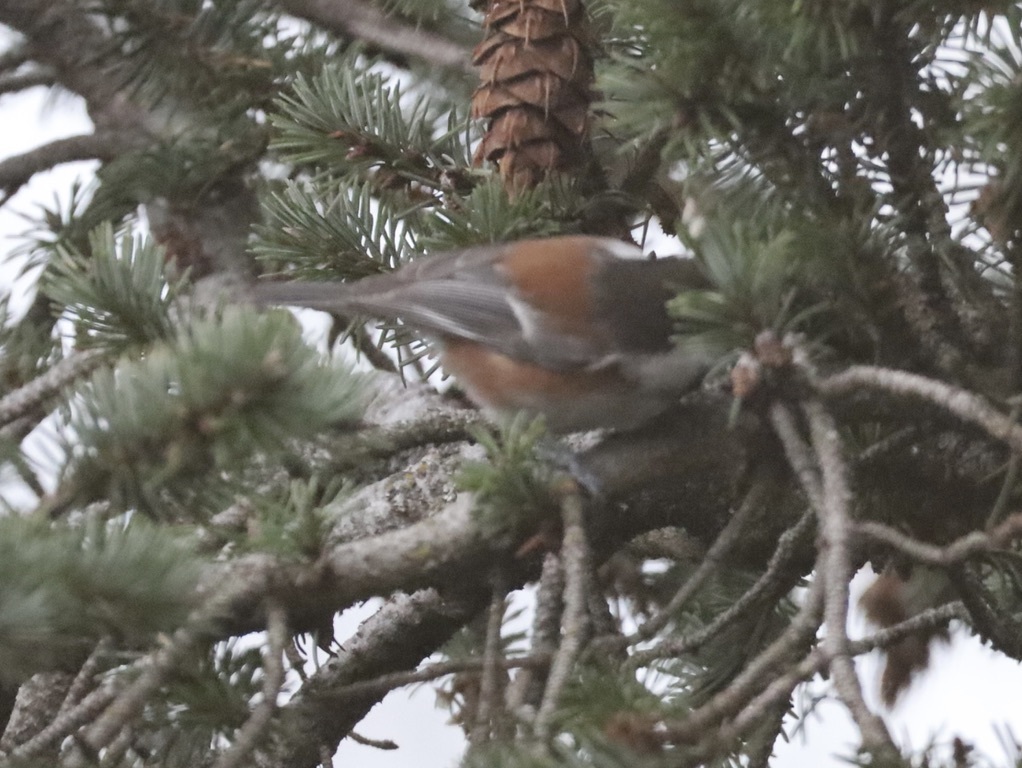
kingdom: Animalia
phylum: Chordata
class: Aves
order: Passeriformes
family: Paridae
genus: Poecile
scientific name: Poecile rufescens
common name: Chestnut-backed chickadee
